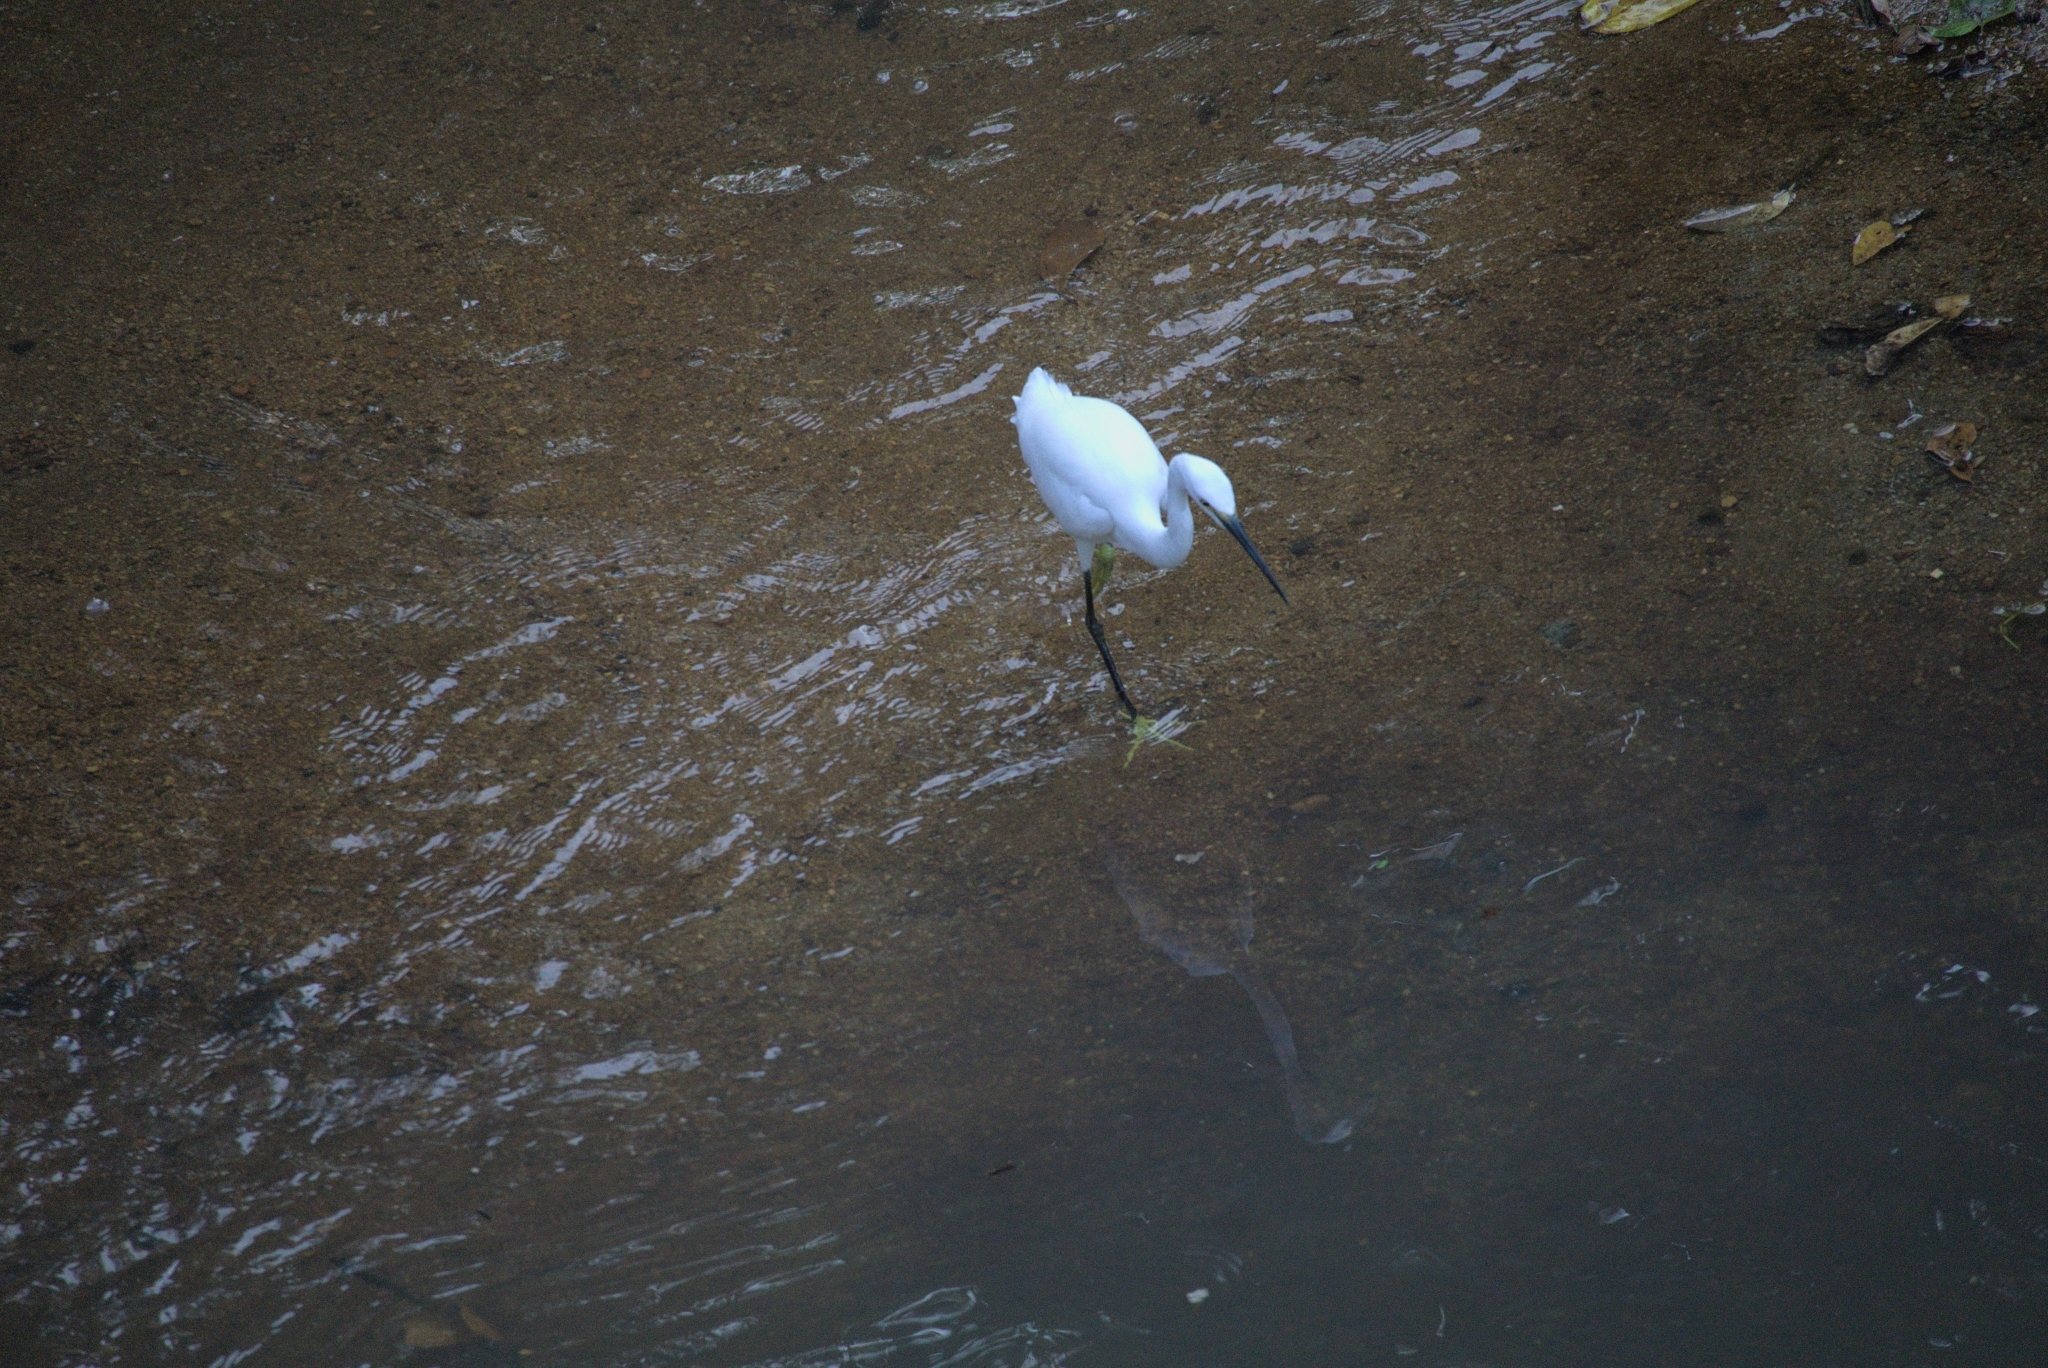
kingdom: Animalia
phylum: Chordata
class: Aves
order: Pelecaniformes
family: Ardeidae
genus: Egretta
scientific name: Egretta garzetta
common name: Little egret
